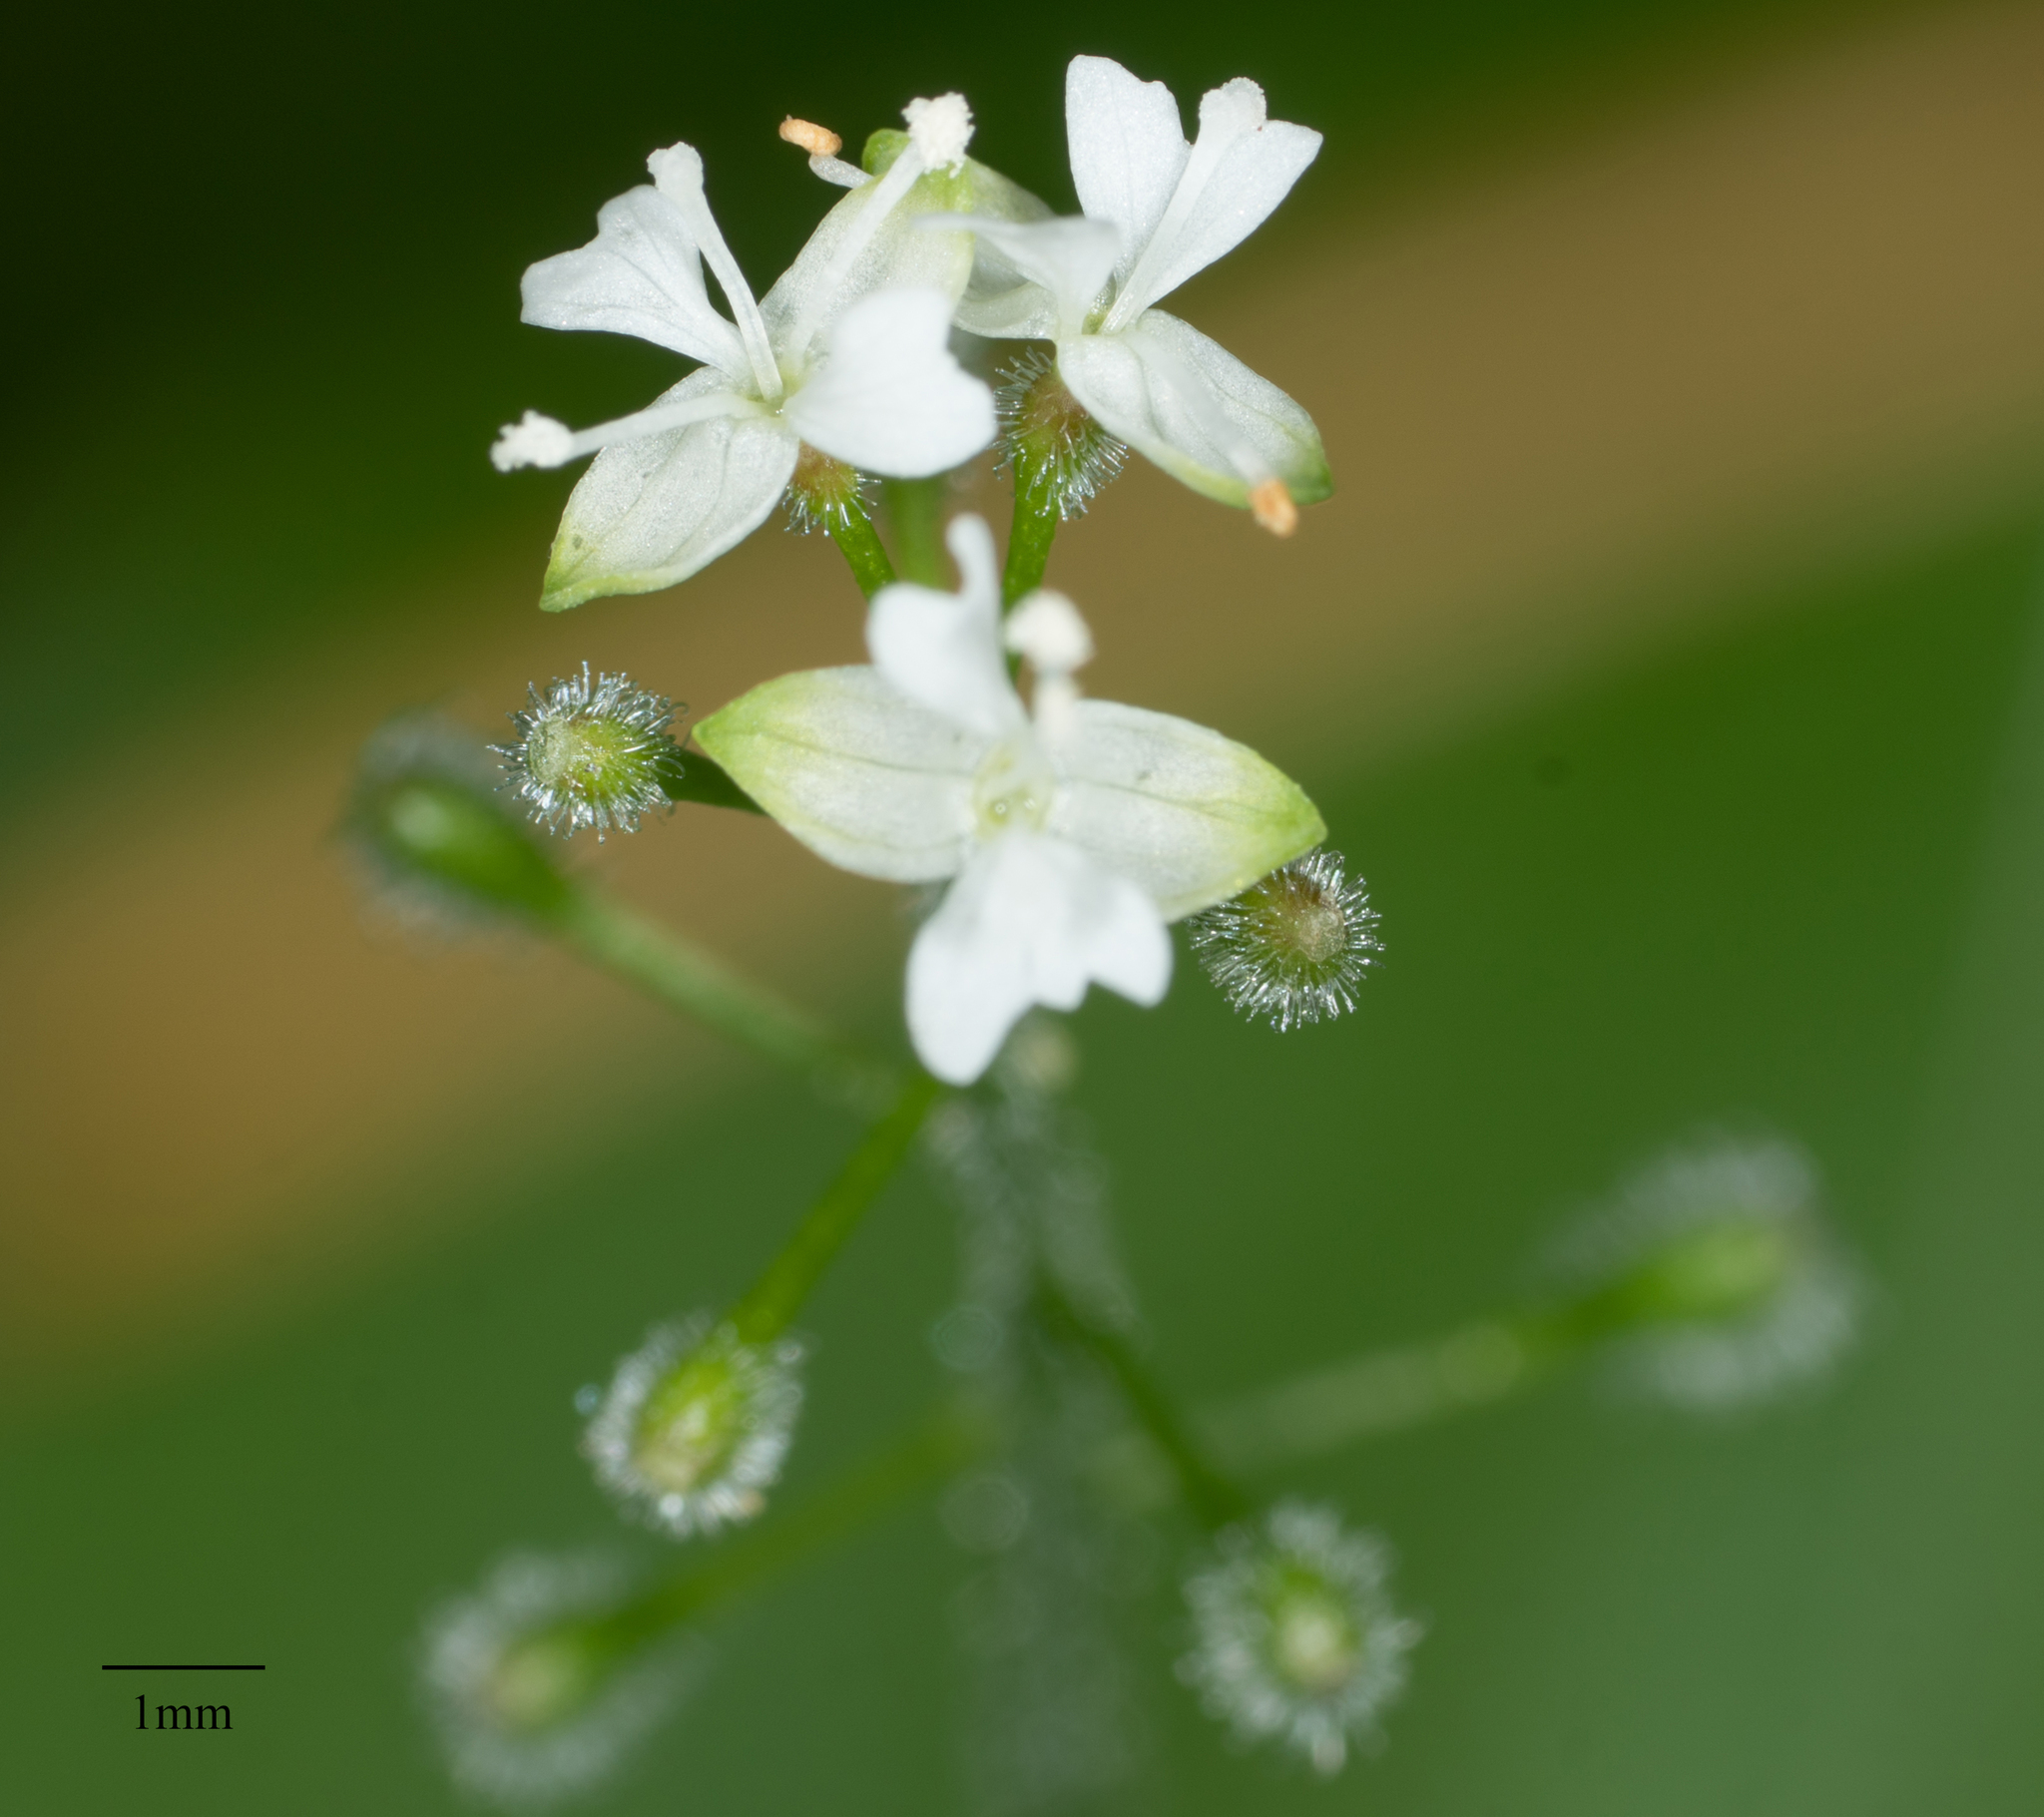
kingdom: Plantae
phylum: Tracheophyta
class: Magnoliopsida
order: Myrtales
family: Onagraceae
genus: Circaea
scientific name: Circaea alpina
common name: Alpine enchanter's-nightshade
